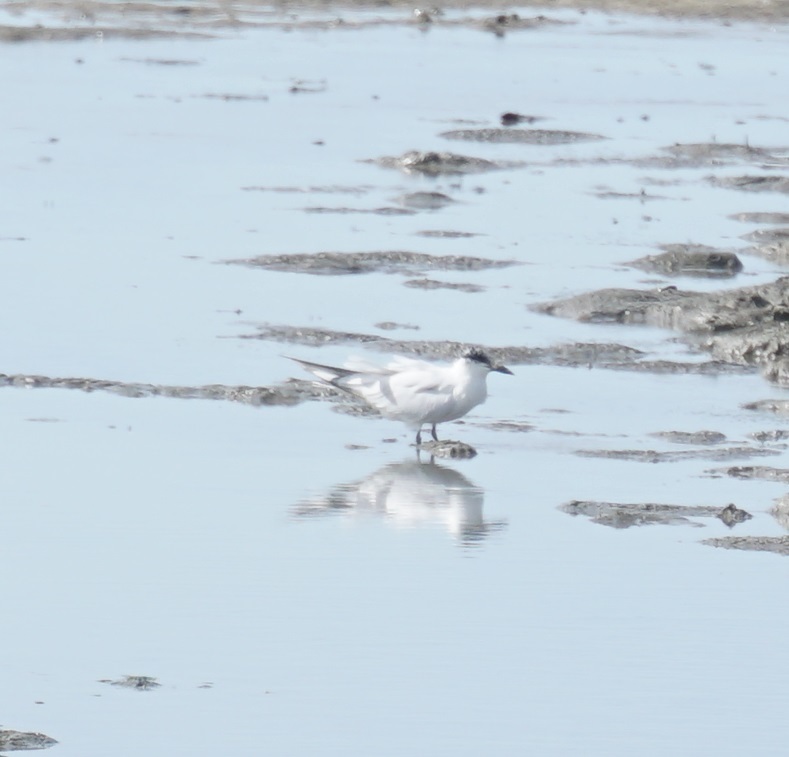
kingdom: Animalia
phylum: Chordata
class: Aves
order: Charadriiformes
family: Laridae
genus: Gelochelidon
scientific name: Gelochelidon macrotarsa
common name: Australian tern
